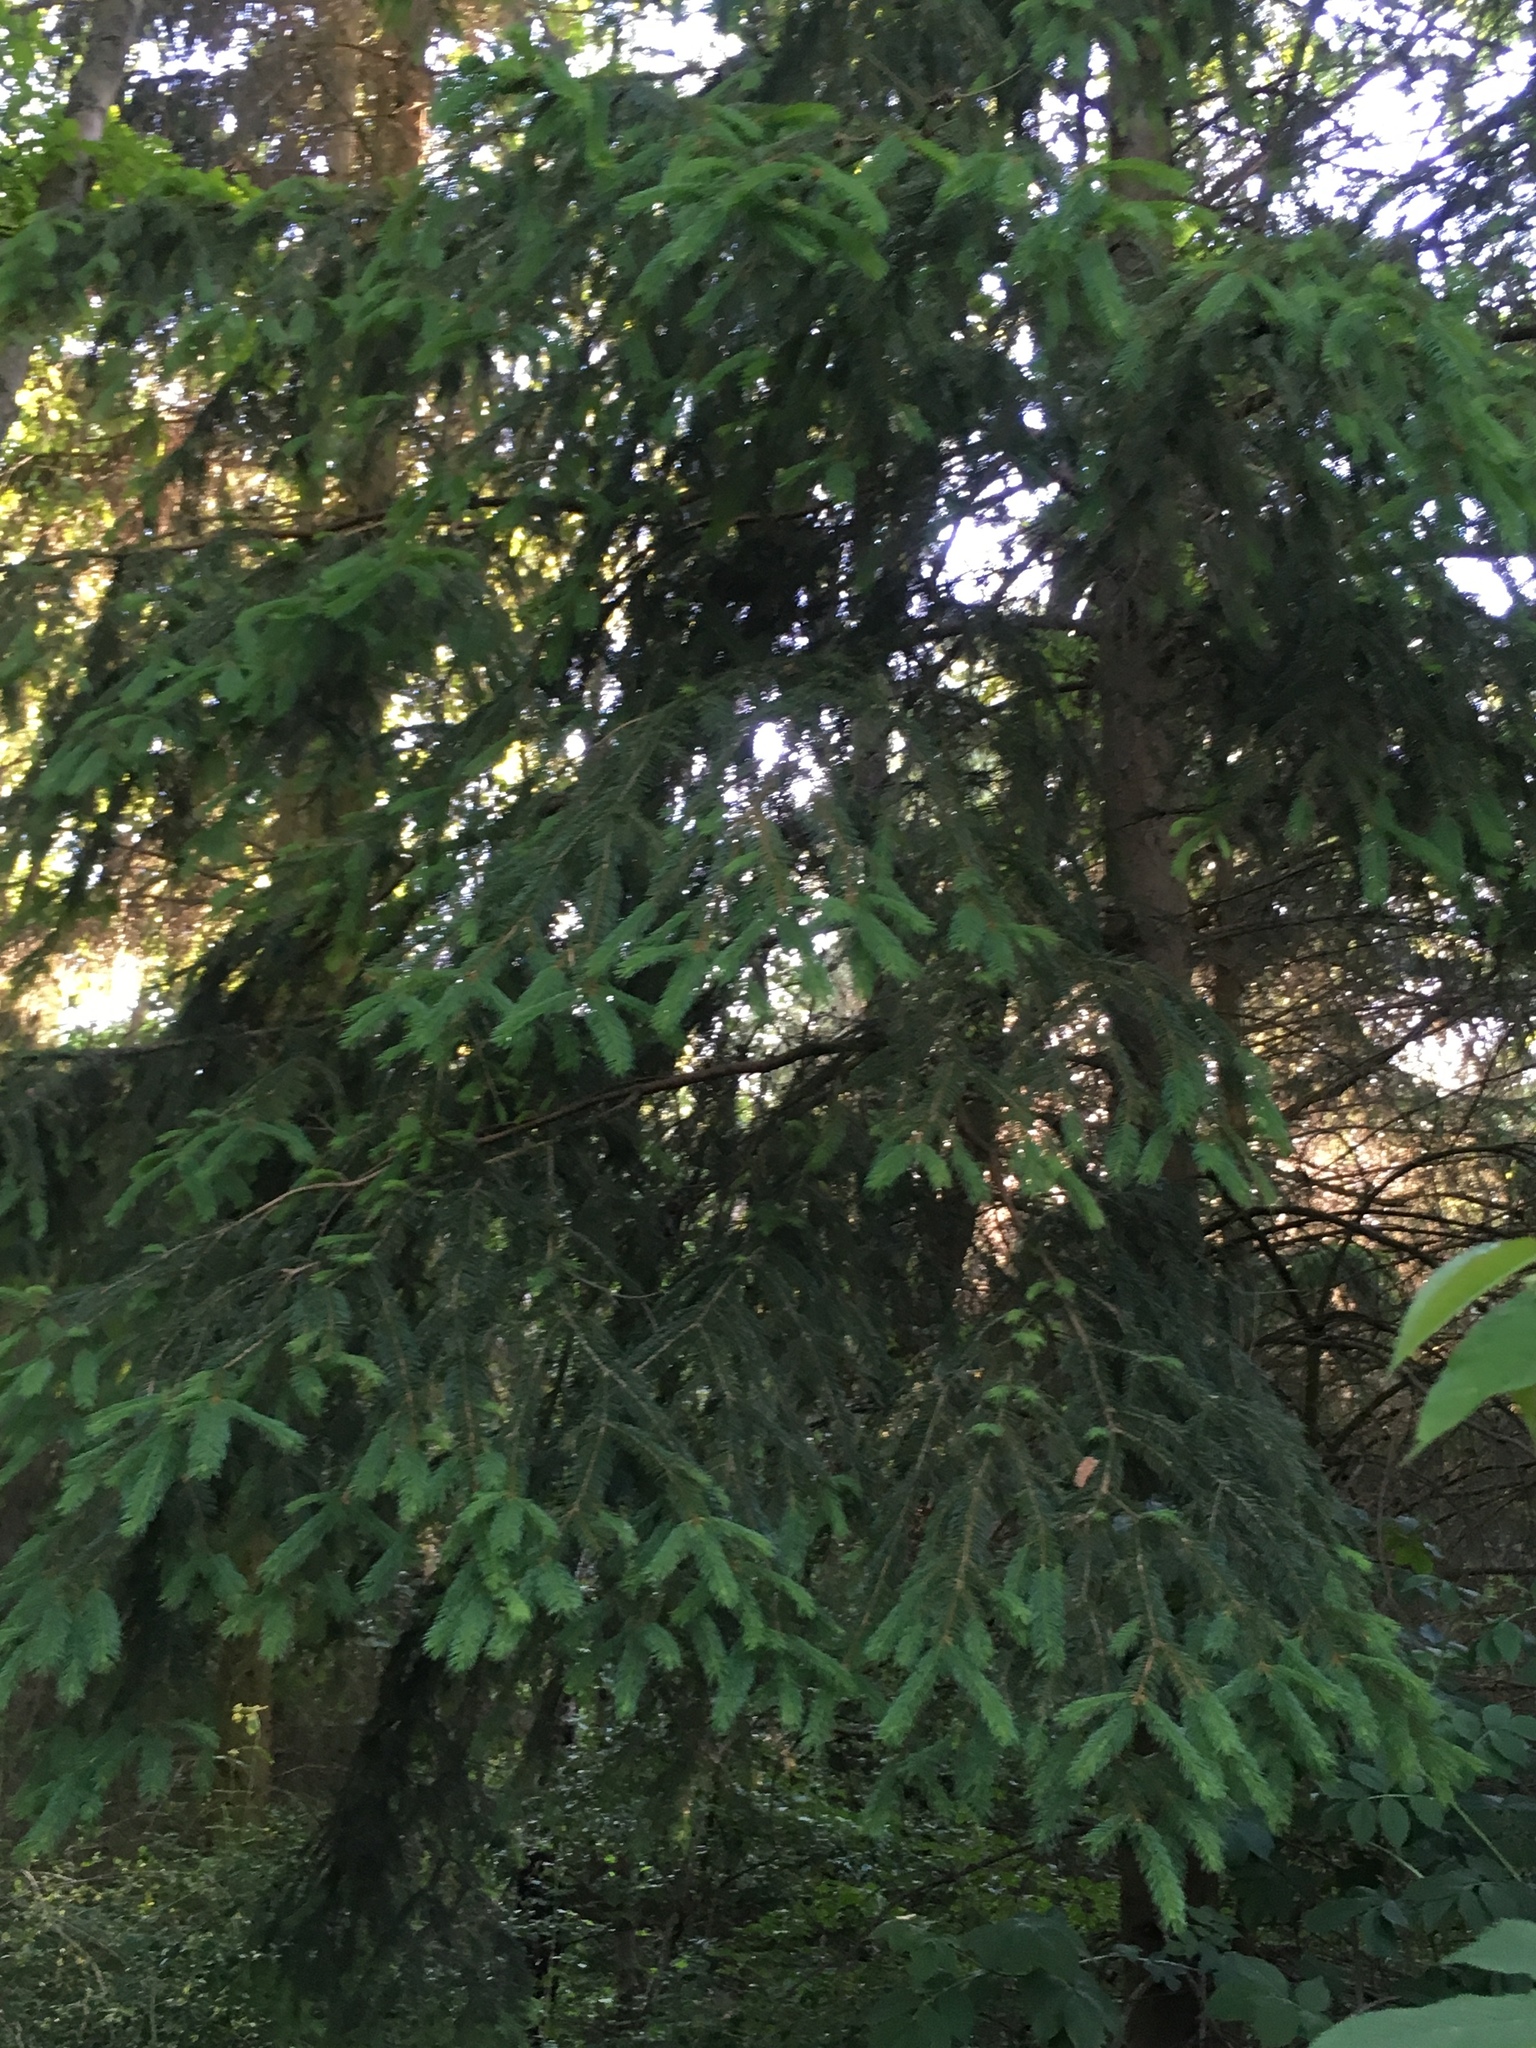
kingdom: Plantae
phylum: Tracheophyta
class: Pinopsida
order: Pinales
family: Pinaceae
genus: Picea
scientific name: Picea abies
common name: Norway spruce
